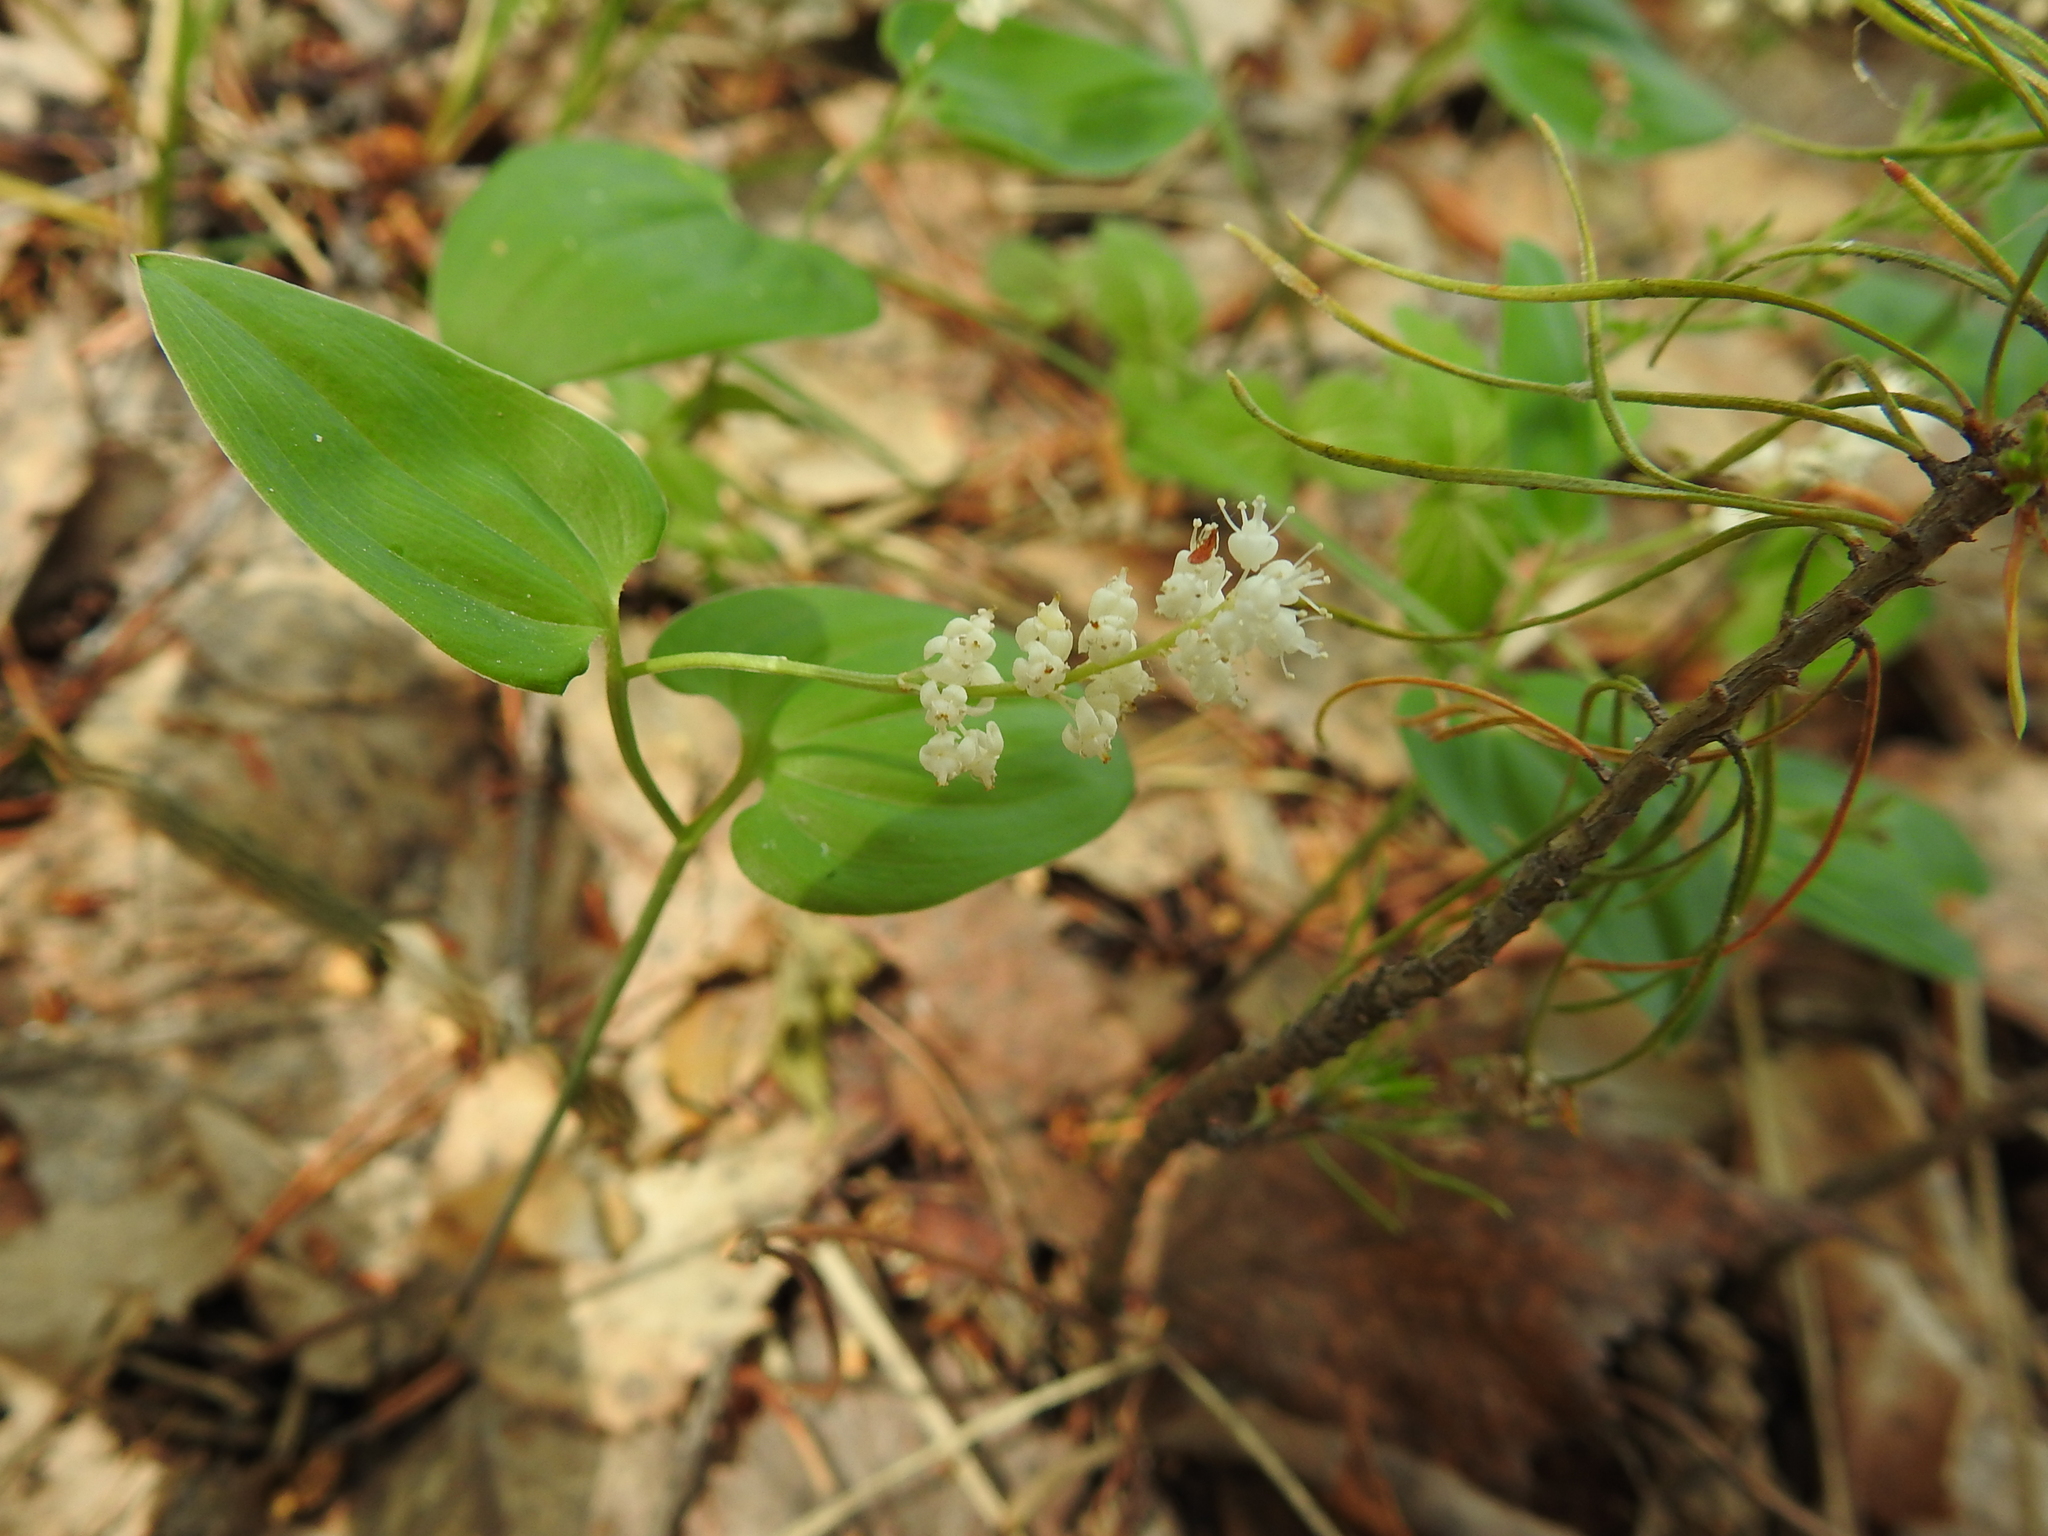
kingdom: Plantae
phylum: Tracheophyta
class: Liliopsida
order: Asparagales
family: Asparagaceae
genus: Maianthemum
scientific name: Maianthemum bifolium
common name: May lily
